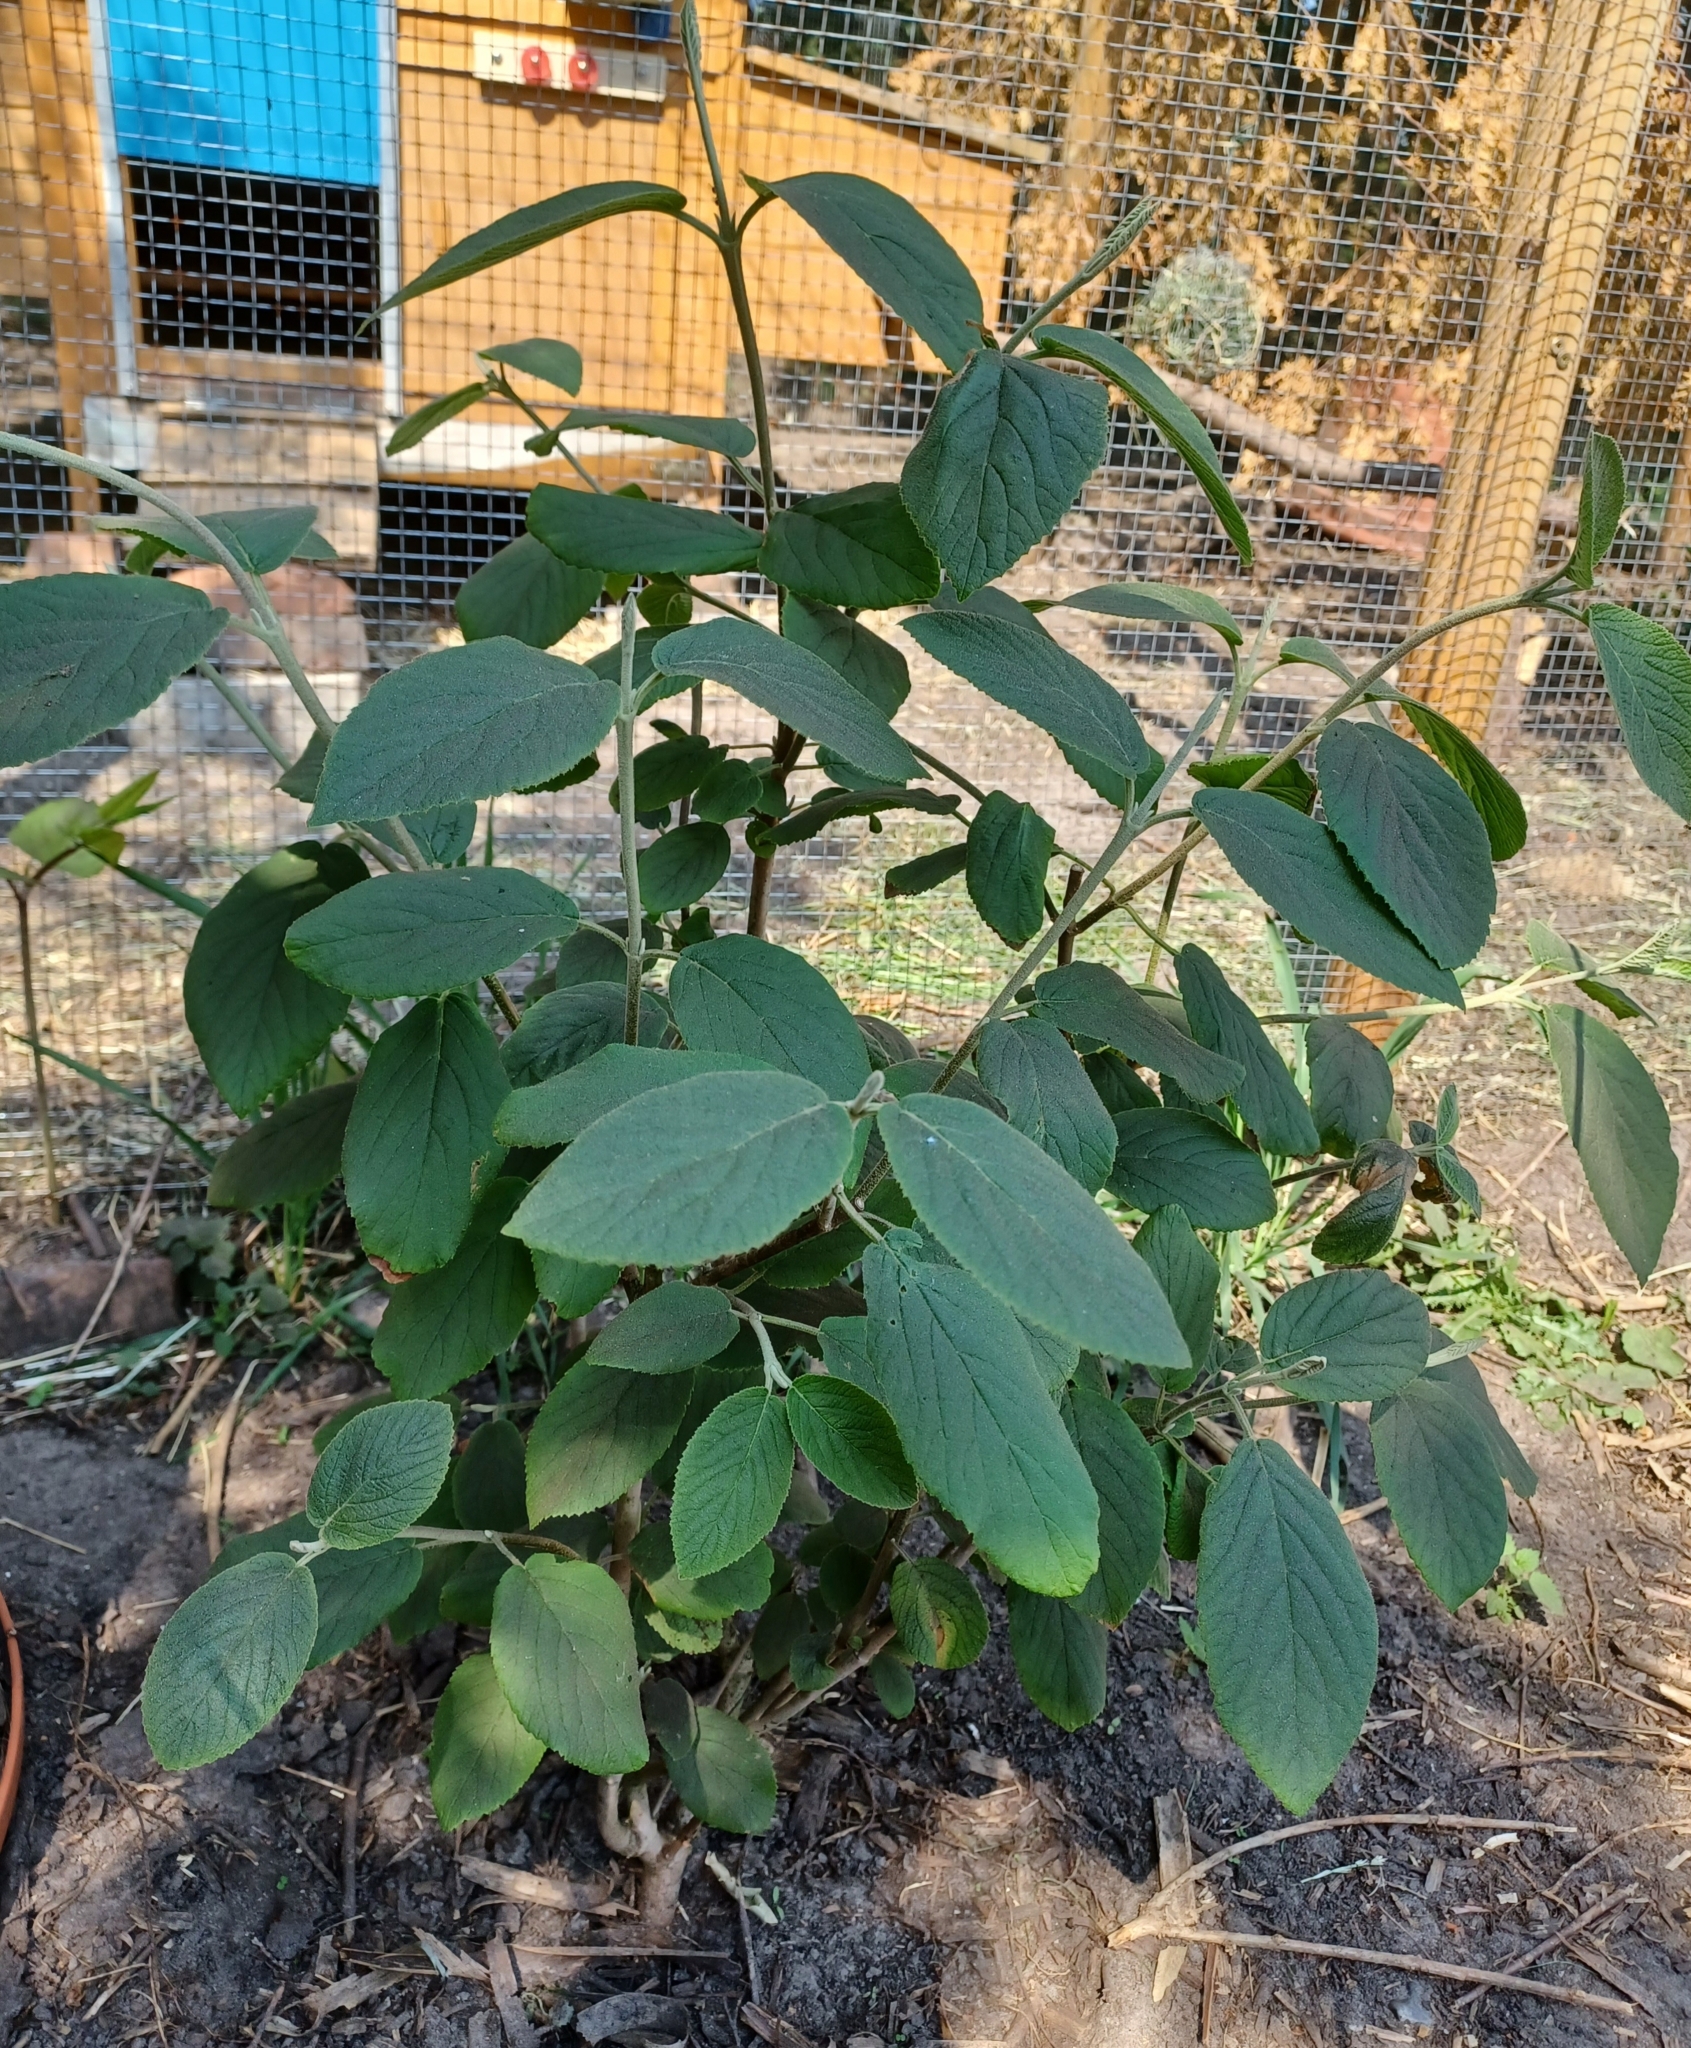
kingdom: Plantae
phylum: Tracheophyta
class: Magnoliopsida
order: Dipsacales
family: Viburnaceae
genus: Viburnum
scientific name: Viburnum lantana
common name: Wayfaring tree
